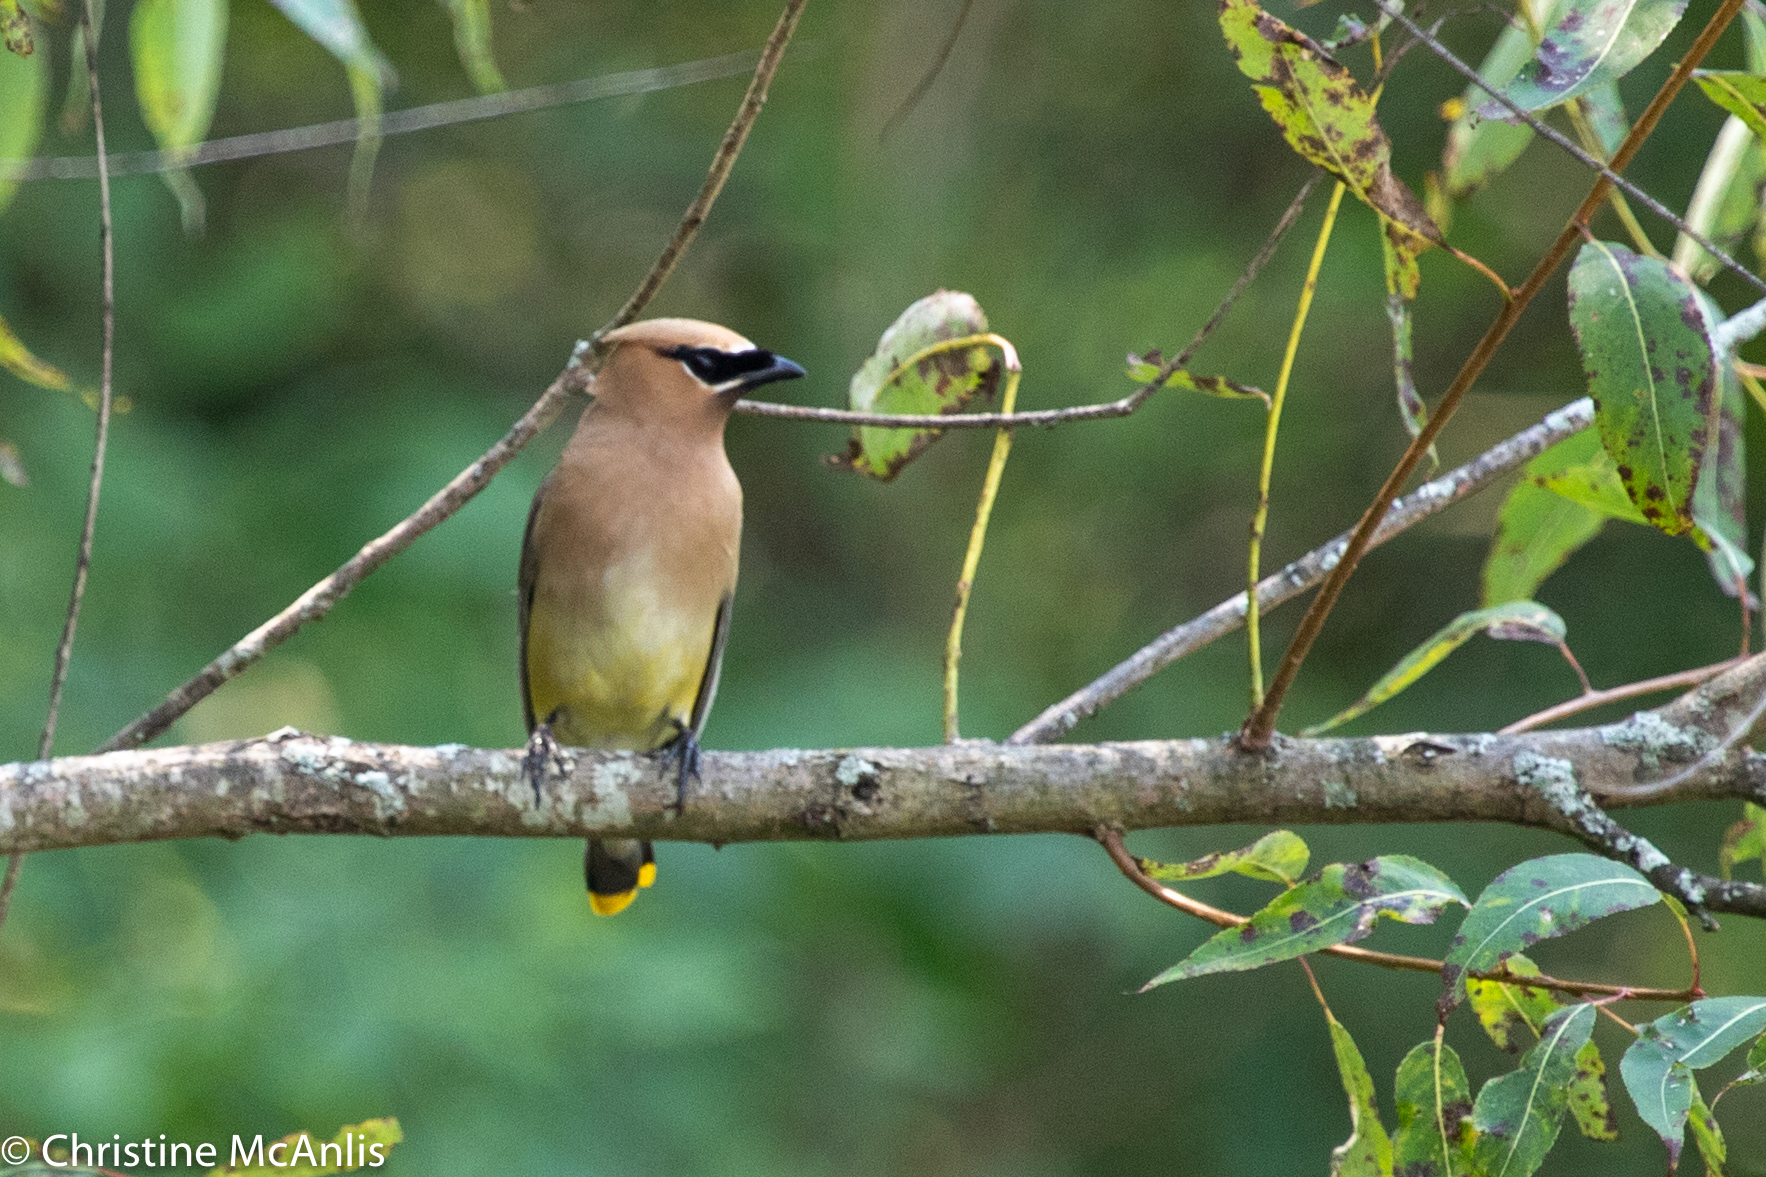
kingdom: Animalia
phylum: Chordata
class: Aves
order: Passeriformes
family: Bombycillidae
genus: Bombycilla
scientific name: Bombycilla cedrorum
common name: Cedar waxwing
